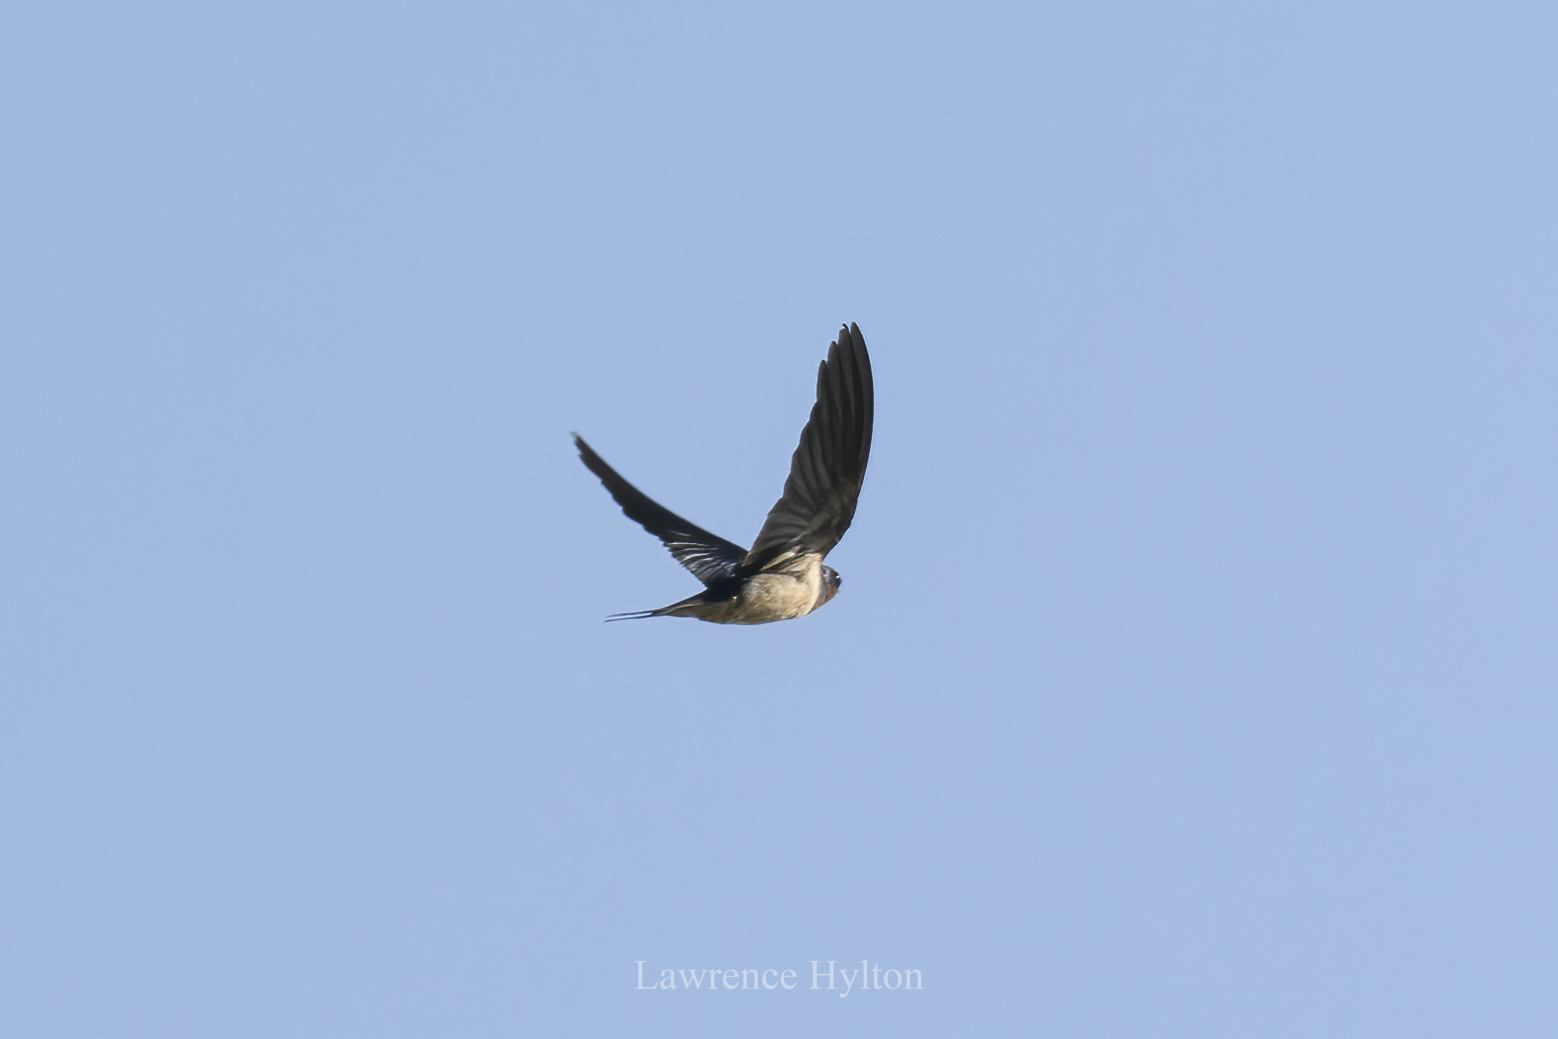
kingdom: Animalia
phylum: Chordata
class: Aves
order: Passeriformes
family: Hirundinidae
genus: Hirundo
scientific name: Hirundo rustica
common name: Barn swallow
